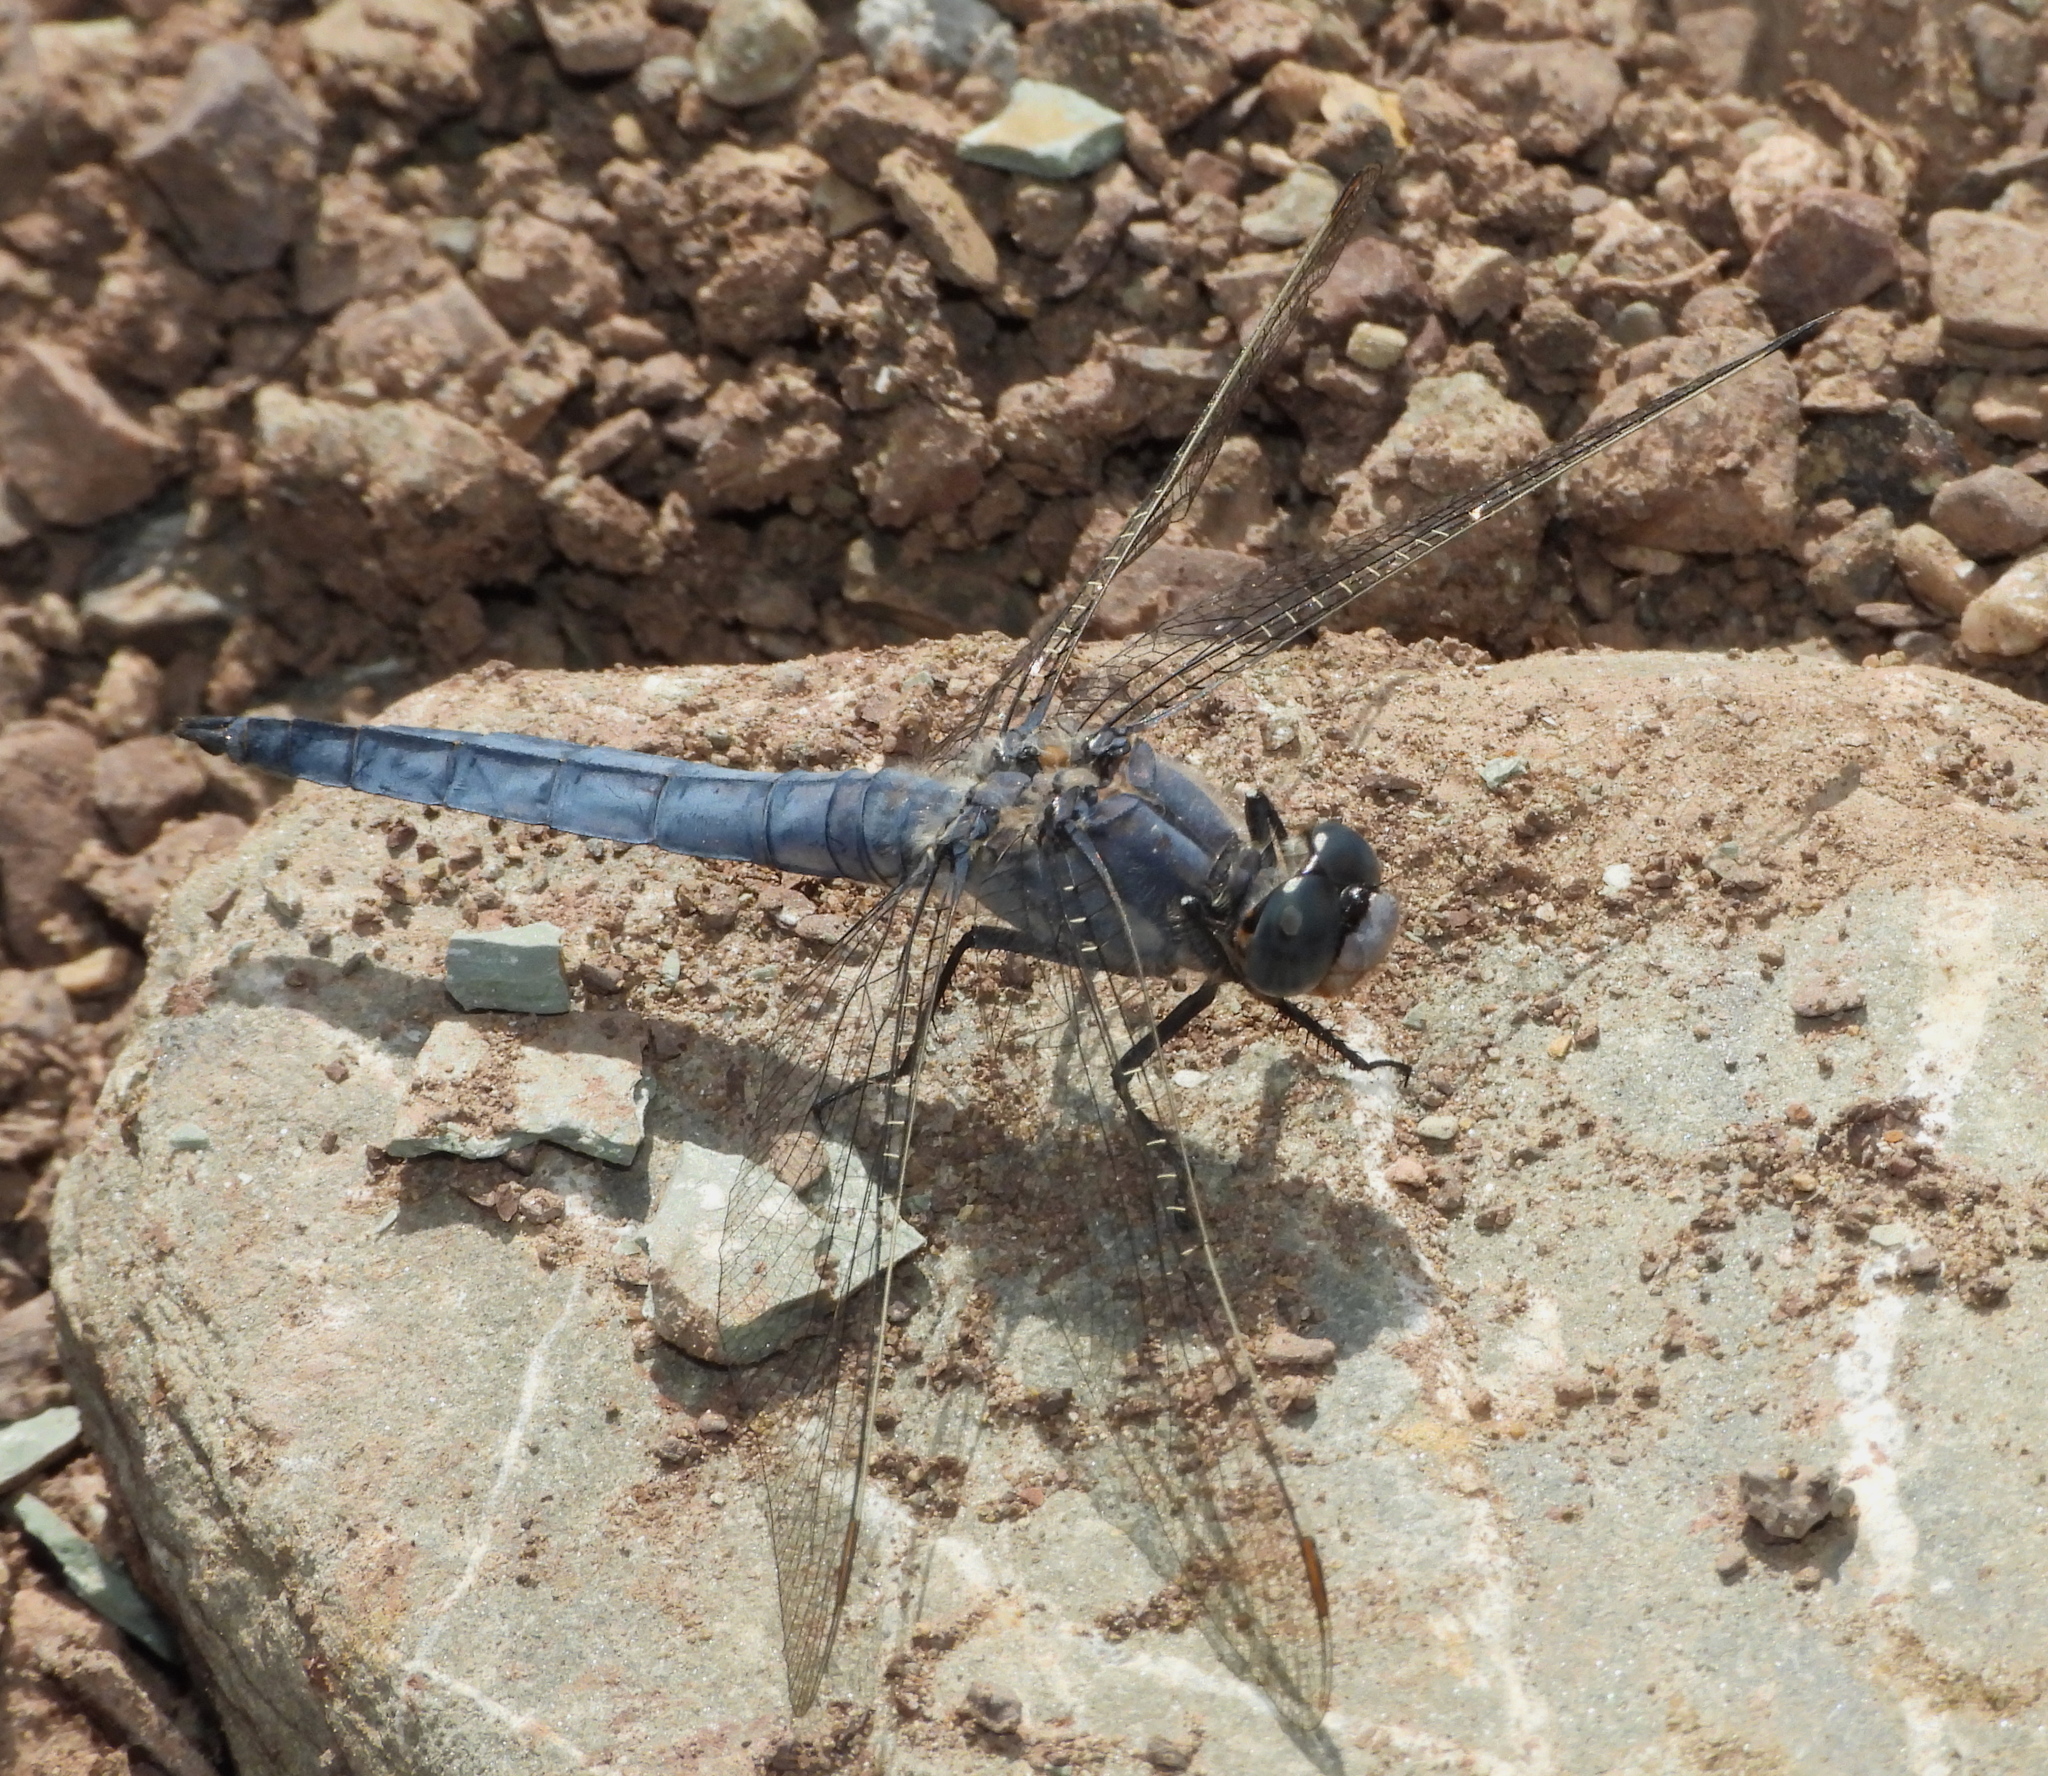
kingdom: Animalia
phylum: Arthropoda
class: Insecta
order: Odonata
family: Libellulidae
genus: Orthetrum
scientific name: Orthetrum brunneum
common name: Southern skimmer
